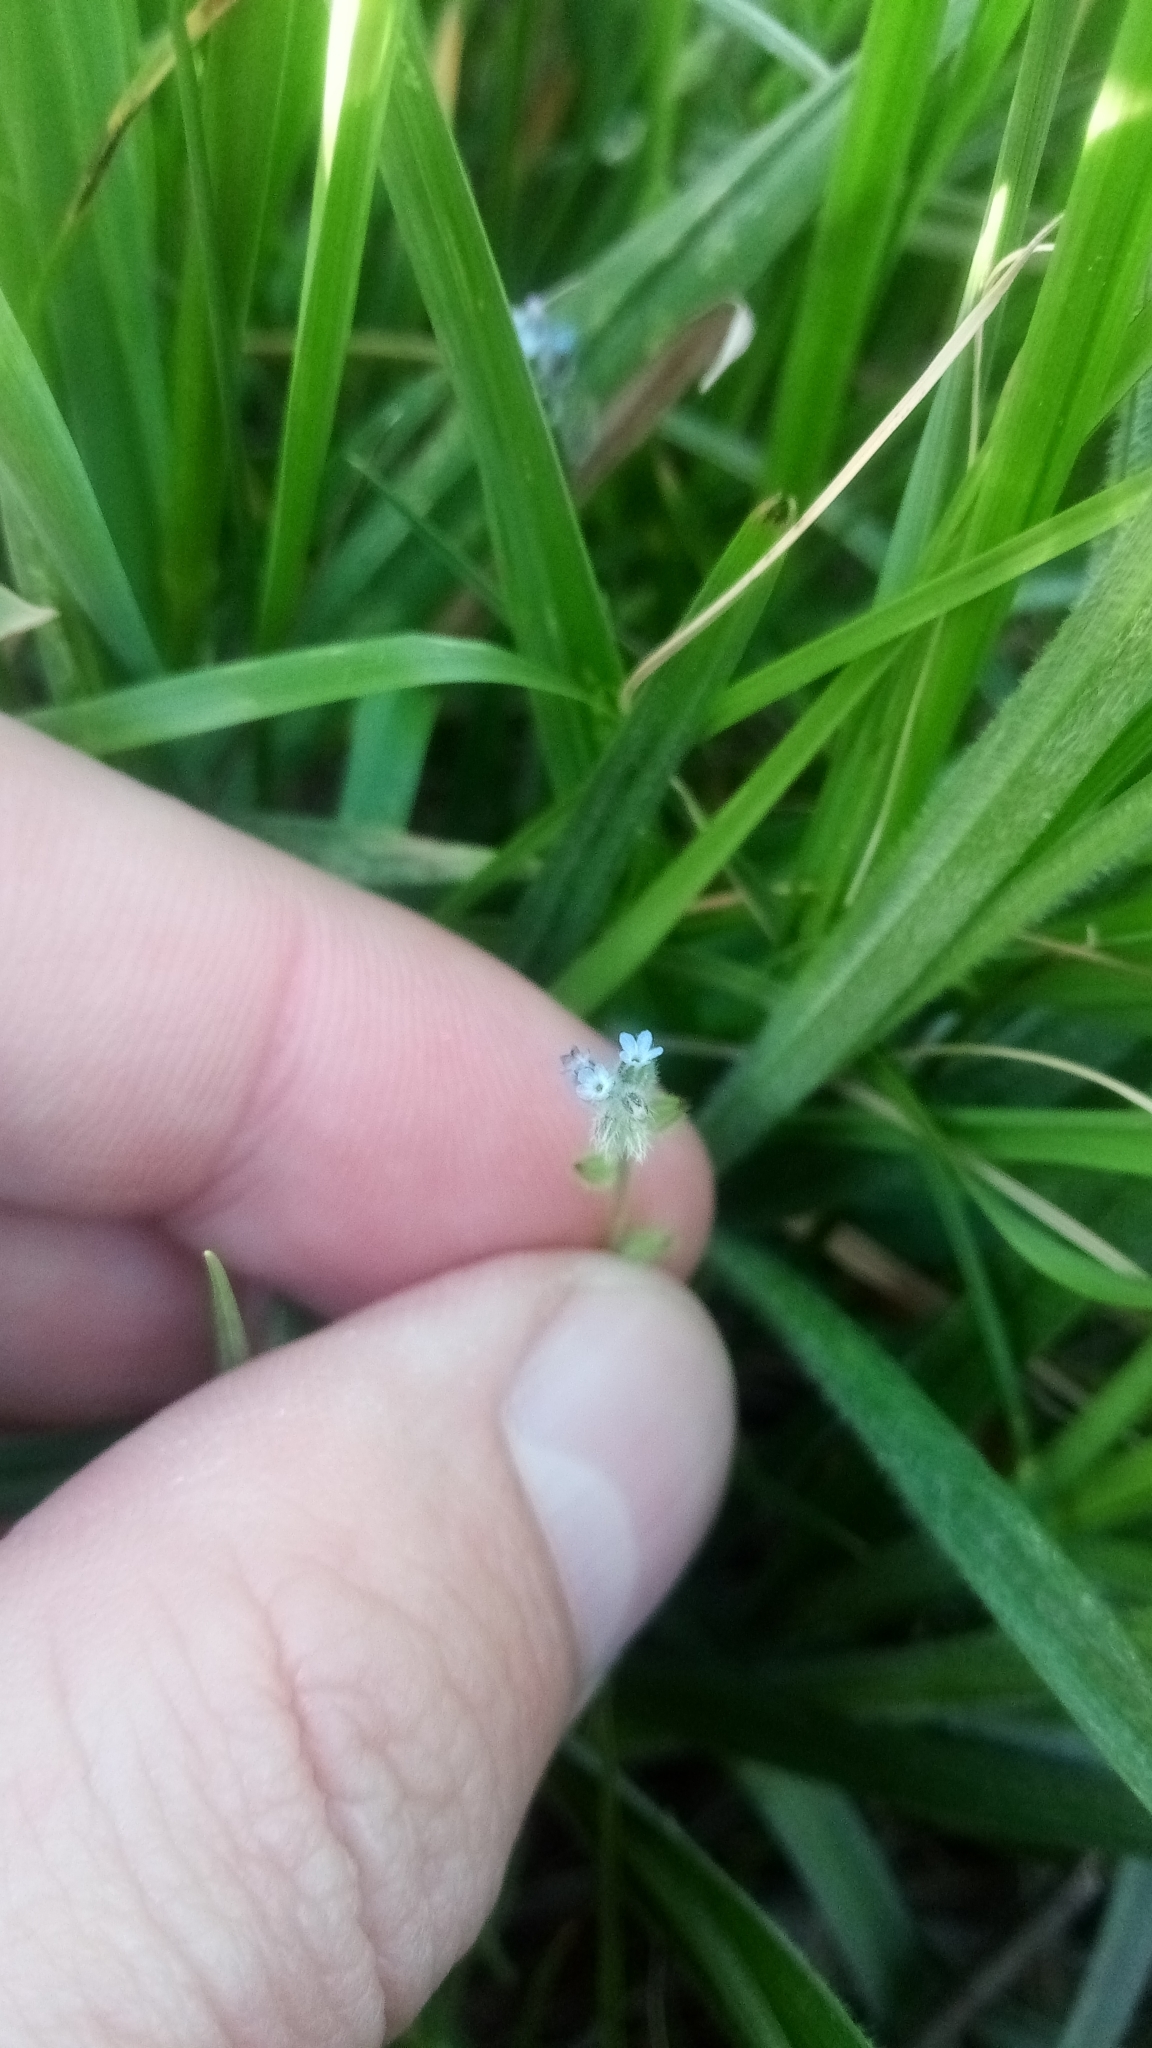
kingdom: Plantae
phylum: Tracheophyta
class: Magnoliopsida
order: Boraginales
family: Boraginaceae
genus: Myosotis
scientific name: Myosotis stricta
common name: Strict forget-me-not
